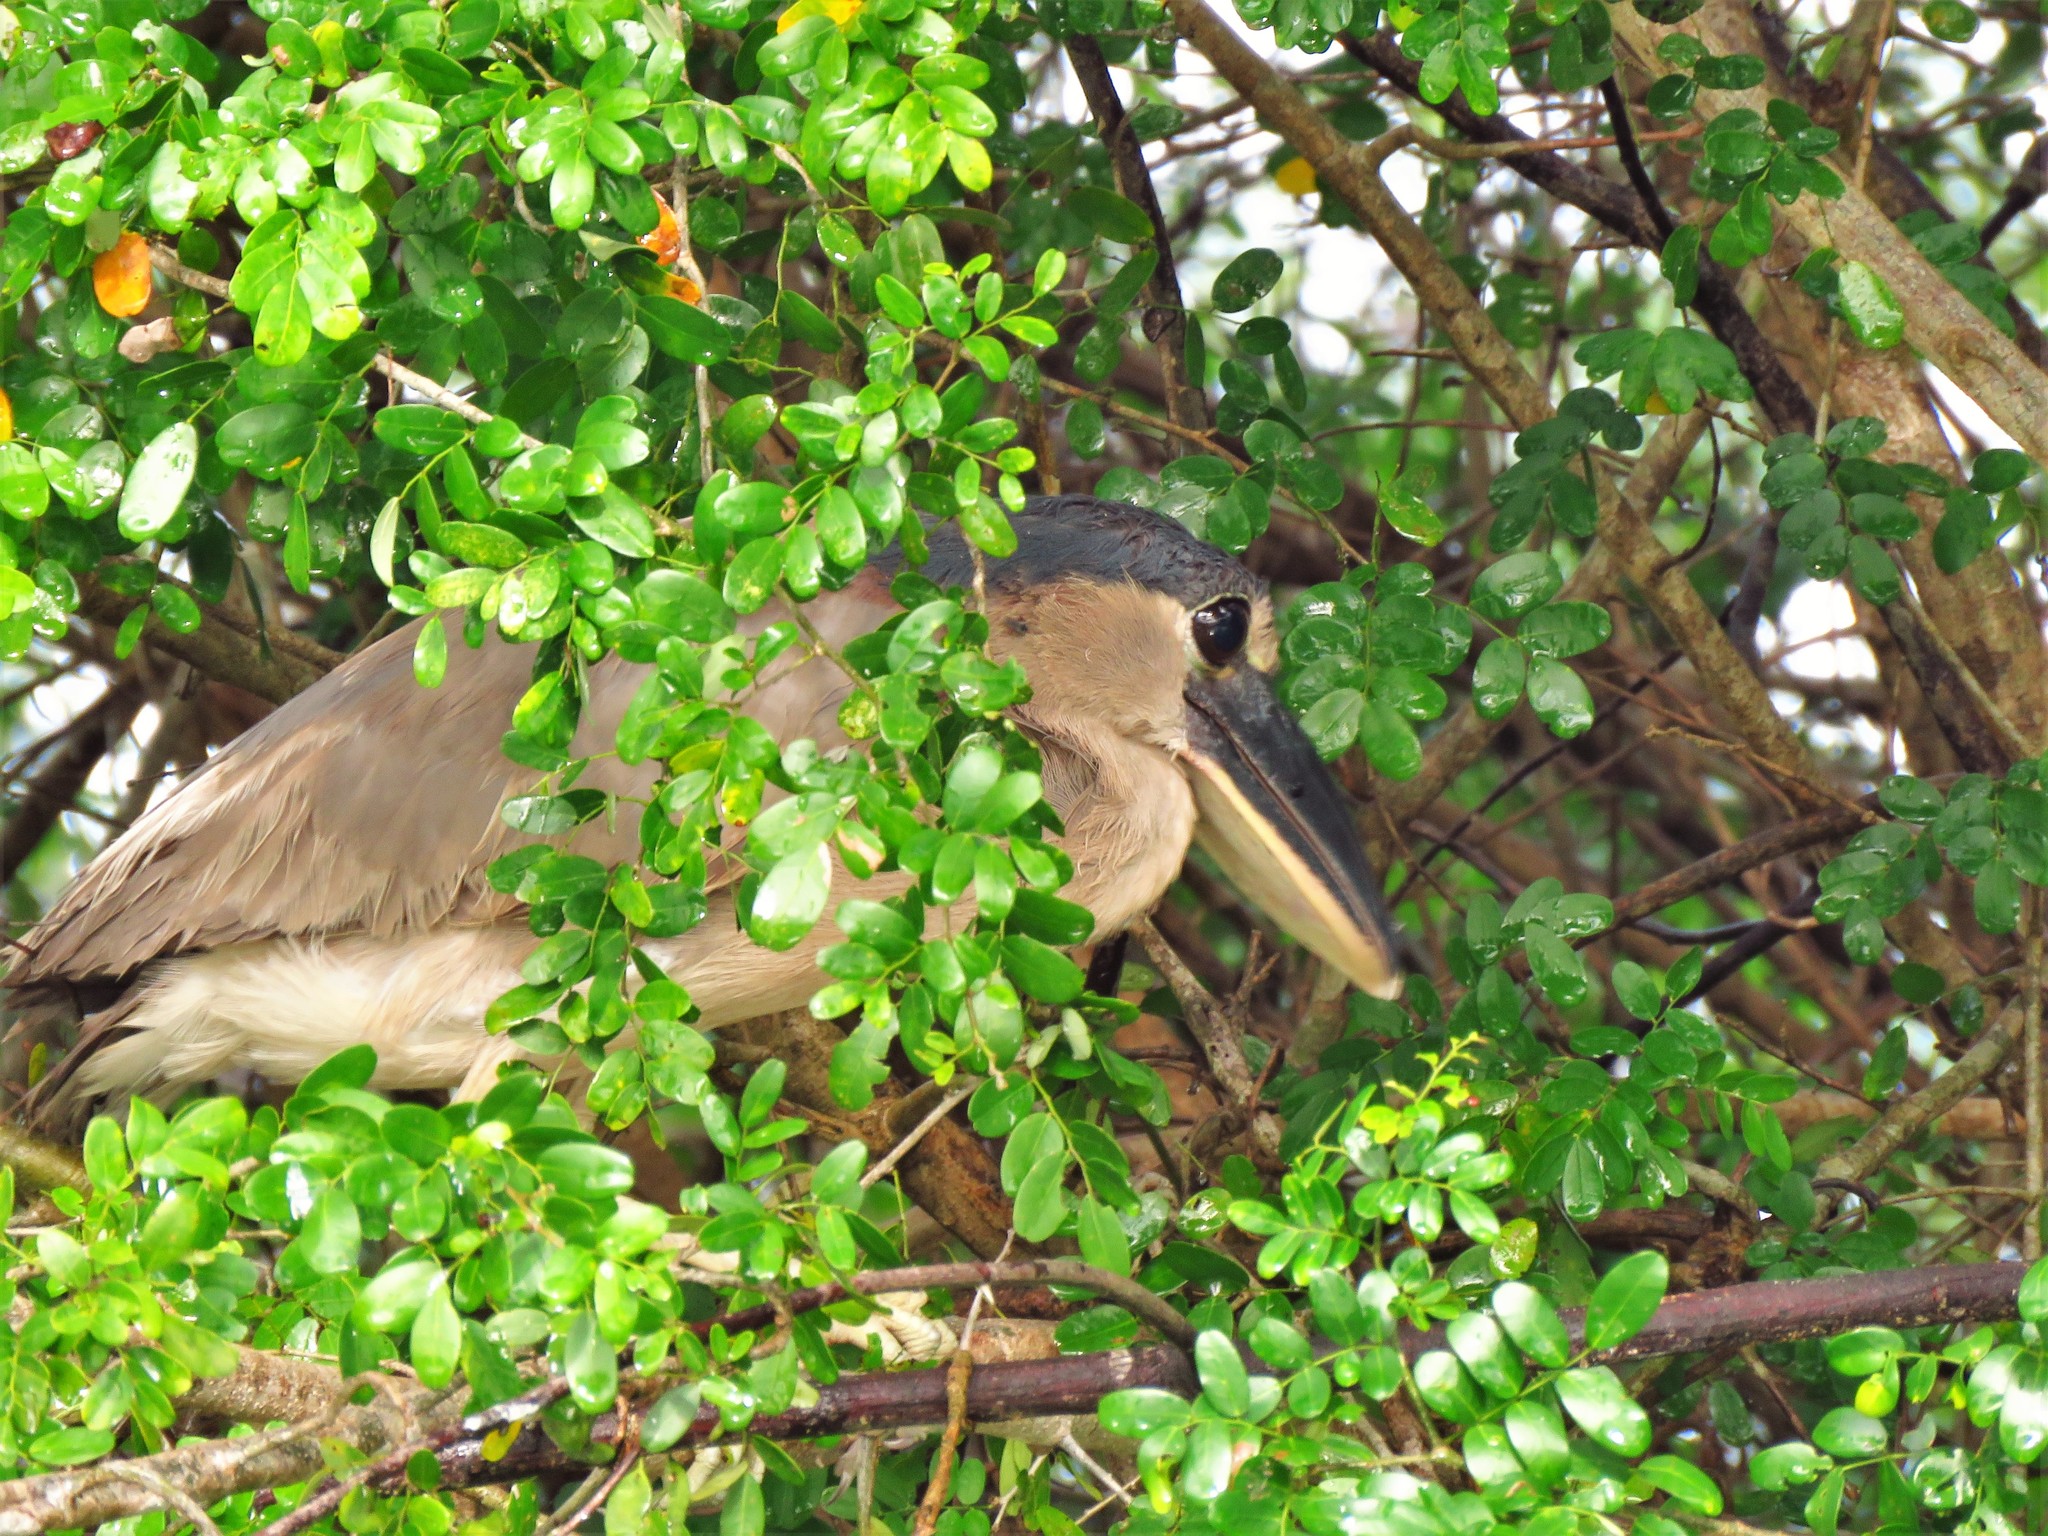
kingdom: Animalia
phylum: Chordata
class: Aves
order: Pelecaniformes
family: Ardeidae
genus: Cochlearius
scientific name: Cochlearius cochlearius
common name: Boat-billed heron
